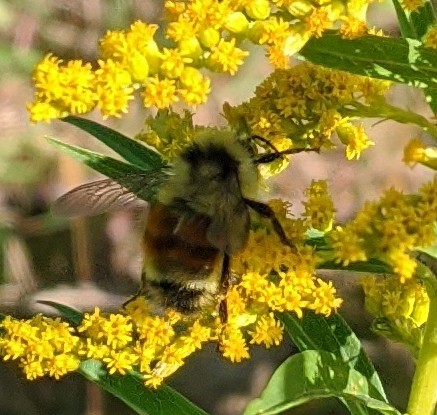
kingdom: Animalia
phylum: Arthropoda
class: Insecta
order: Hymenoptera
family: Apidae
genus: Bombus
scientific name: Bombus ternarius
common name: Tri-colored bumble bee
